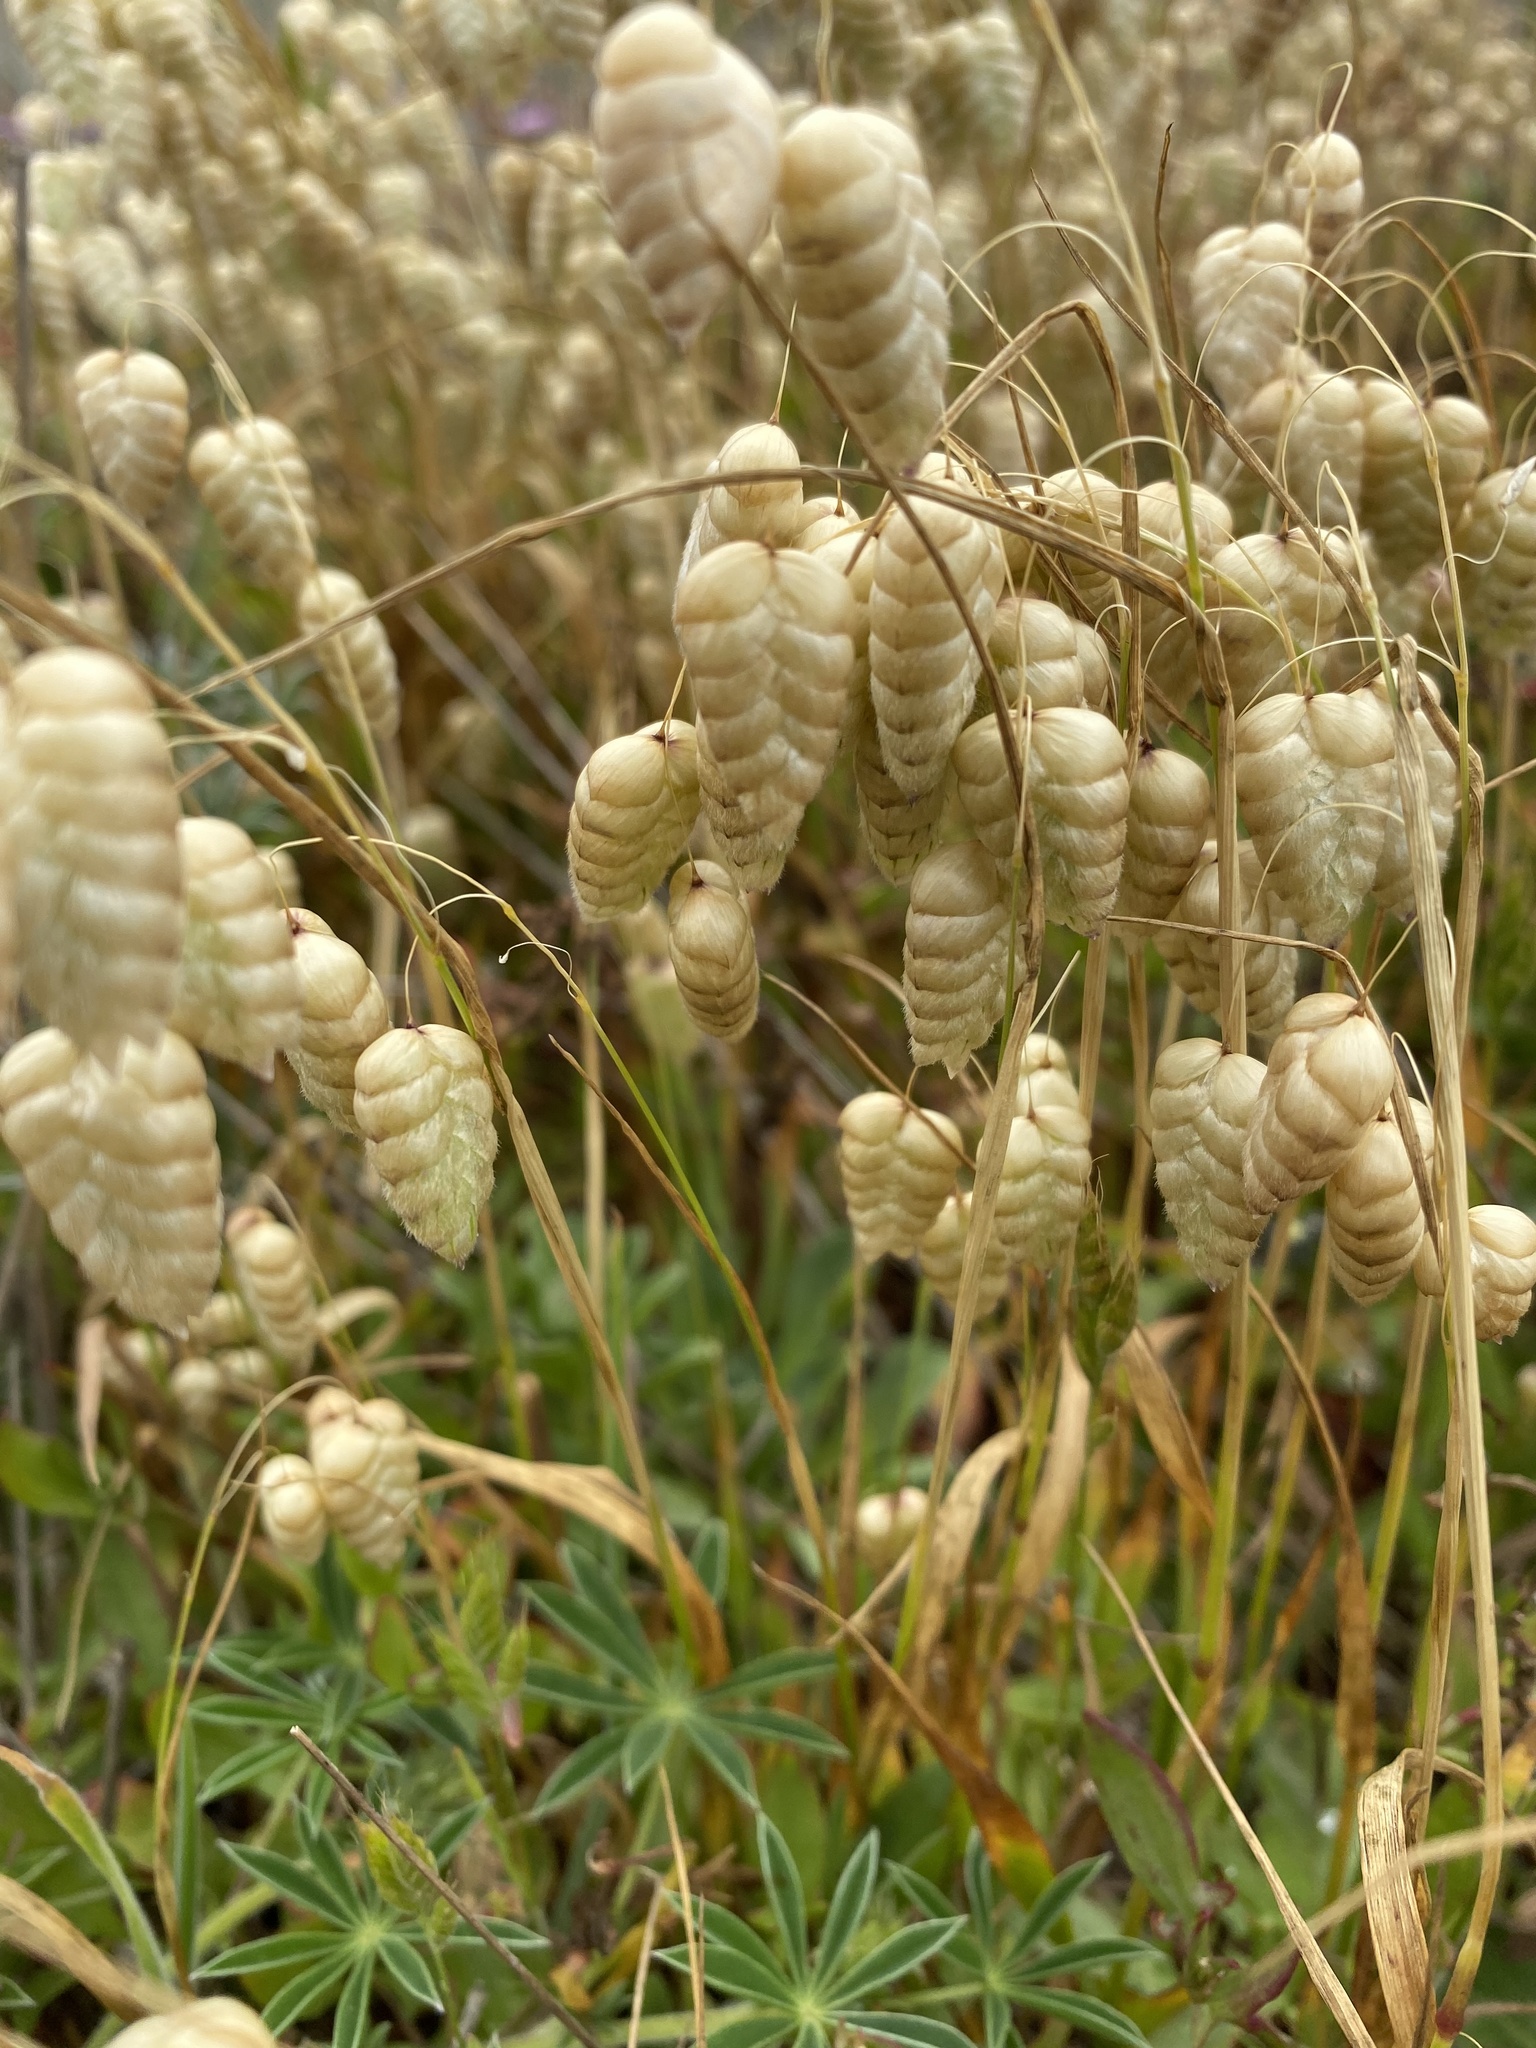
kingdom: Plantae
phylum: Tracheophyta
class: Liliopsida
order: Poales
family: Poaceae
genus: Briza
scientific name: Briza maxima
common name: Big quakinggrass
